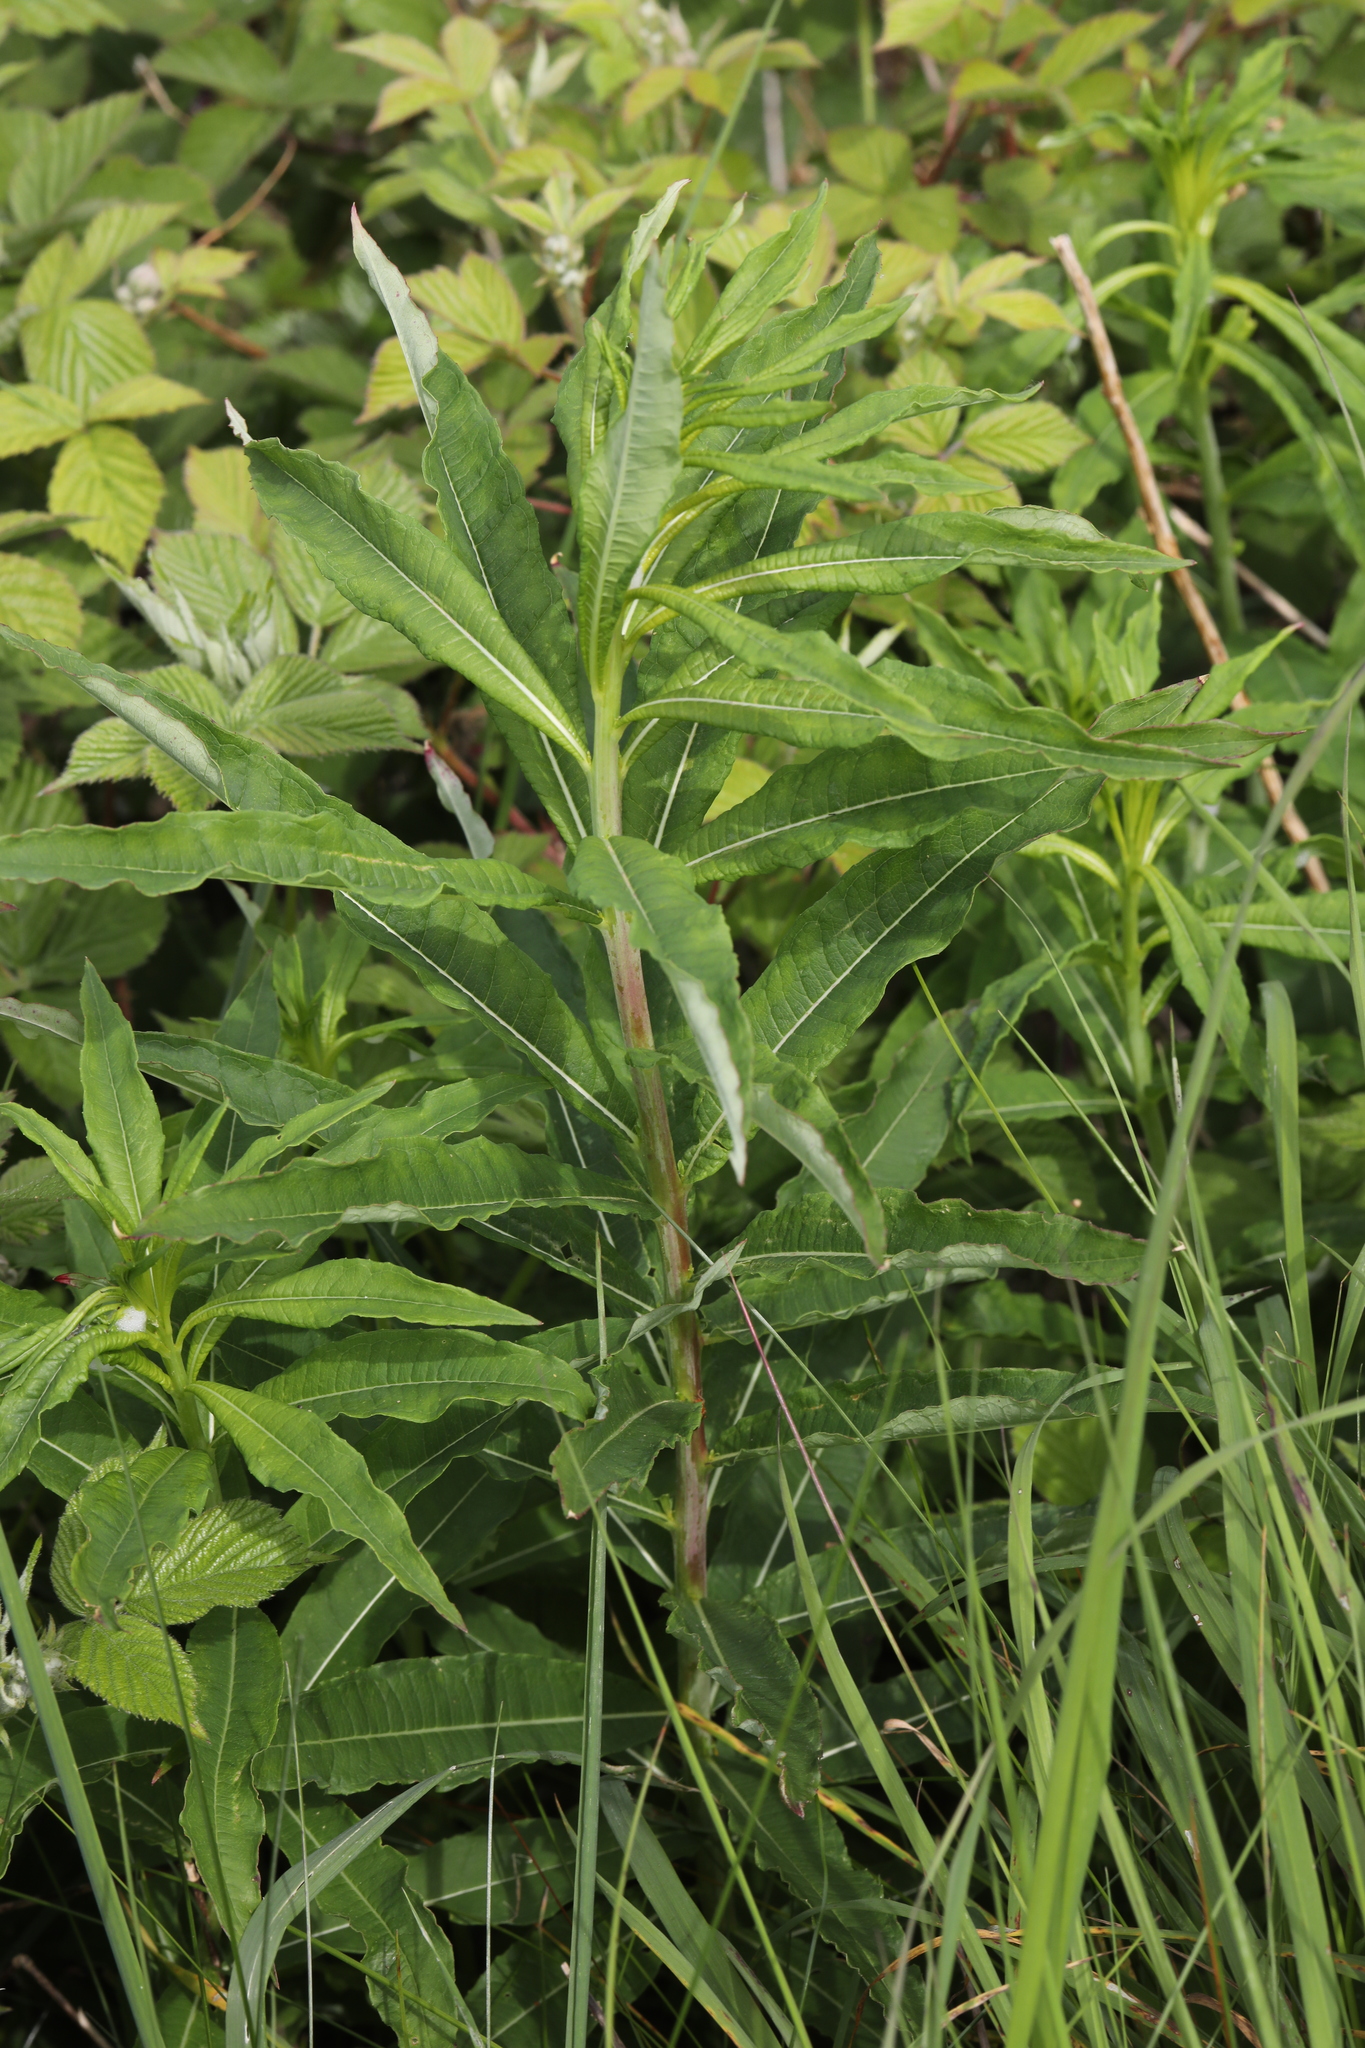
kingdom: Plantae
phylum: Tracheophyta
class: Magnoliopsida
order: Myrtales
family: Onagraceae
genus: Chamaenerion
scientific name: Chamaenerion angustifolium
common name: Fireweed
